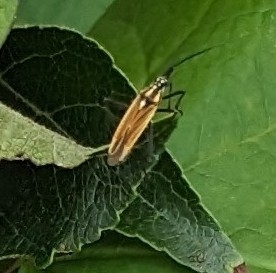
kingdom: Animalia
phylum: Arthropoda
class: Insecta
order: Hemiptera
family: Miridae
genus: Leptopterna
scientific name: Leptopterna dolabrata
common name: Meadow plant bug
